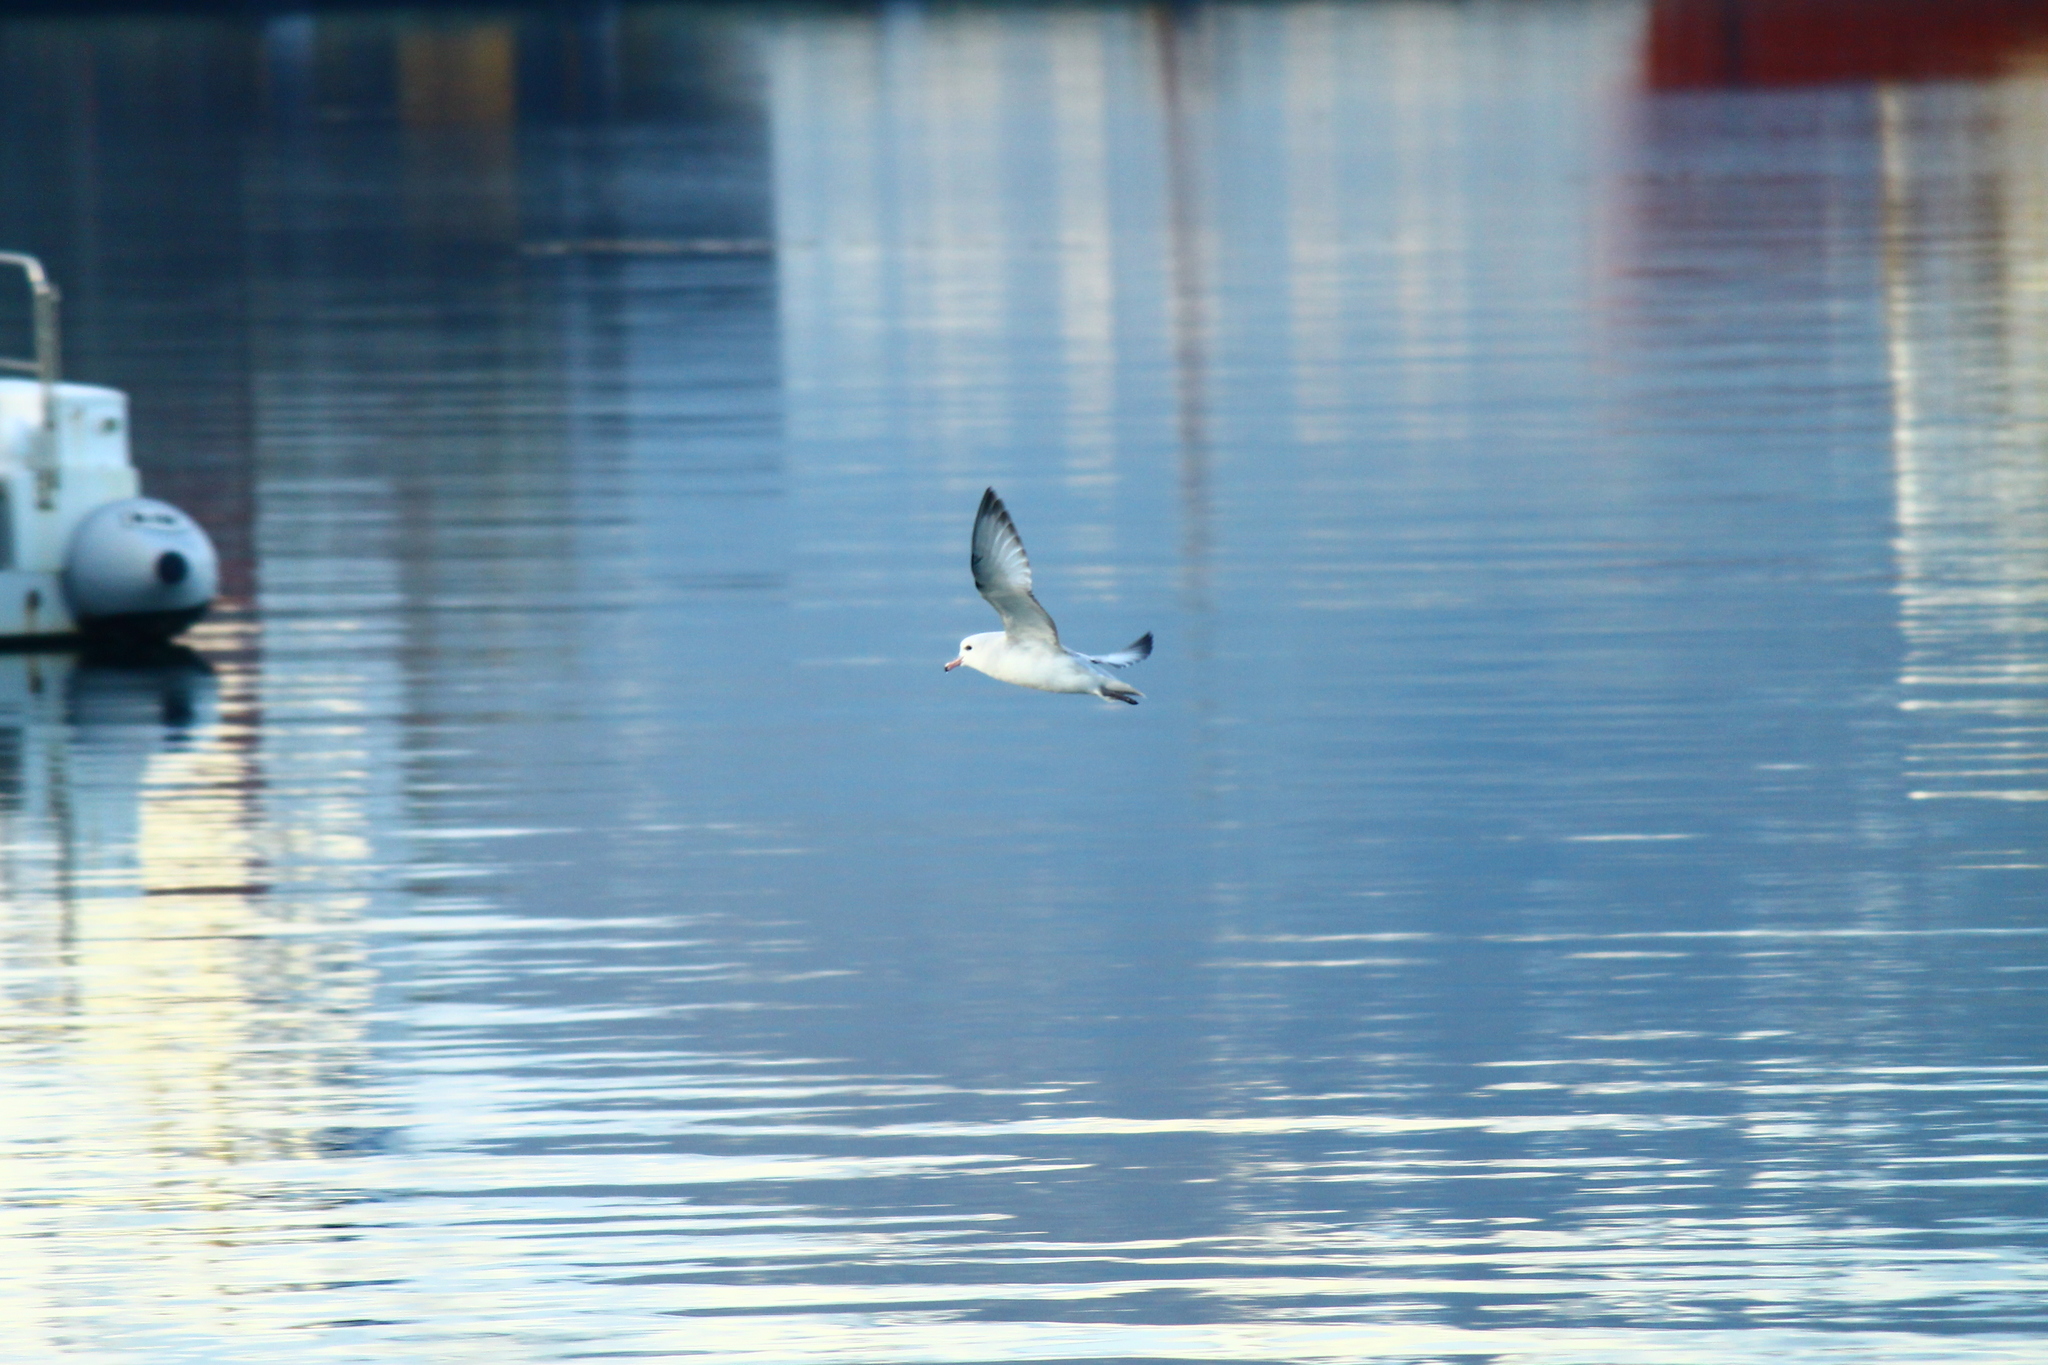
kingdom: Animalia
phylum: Chordata
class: Aves
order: Procellariiformes
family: Procellariidae
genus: Fulmarus
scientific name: Fulmarus glacialoides
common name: Southern fulmar
